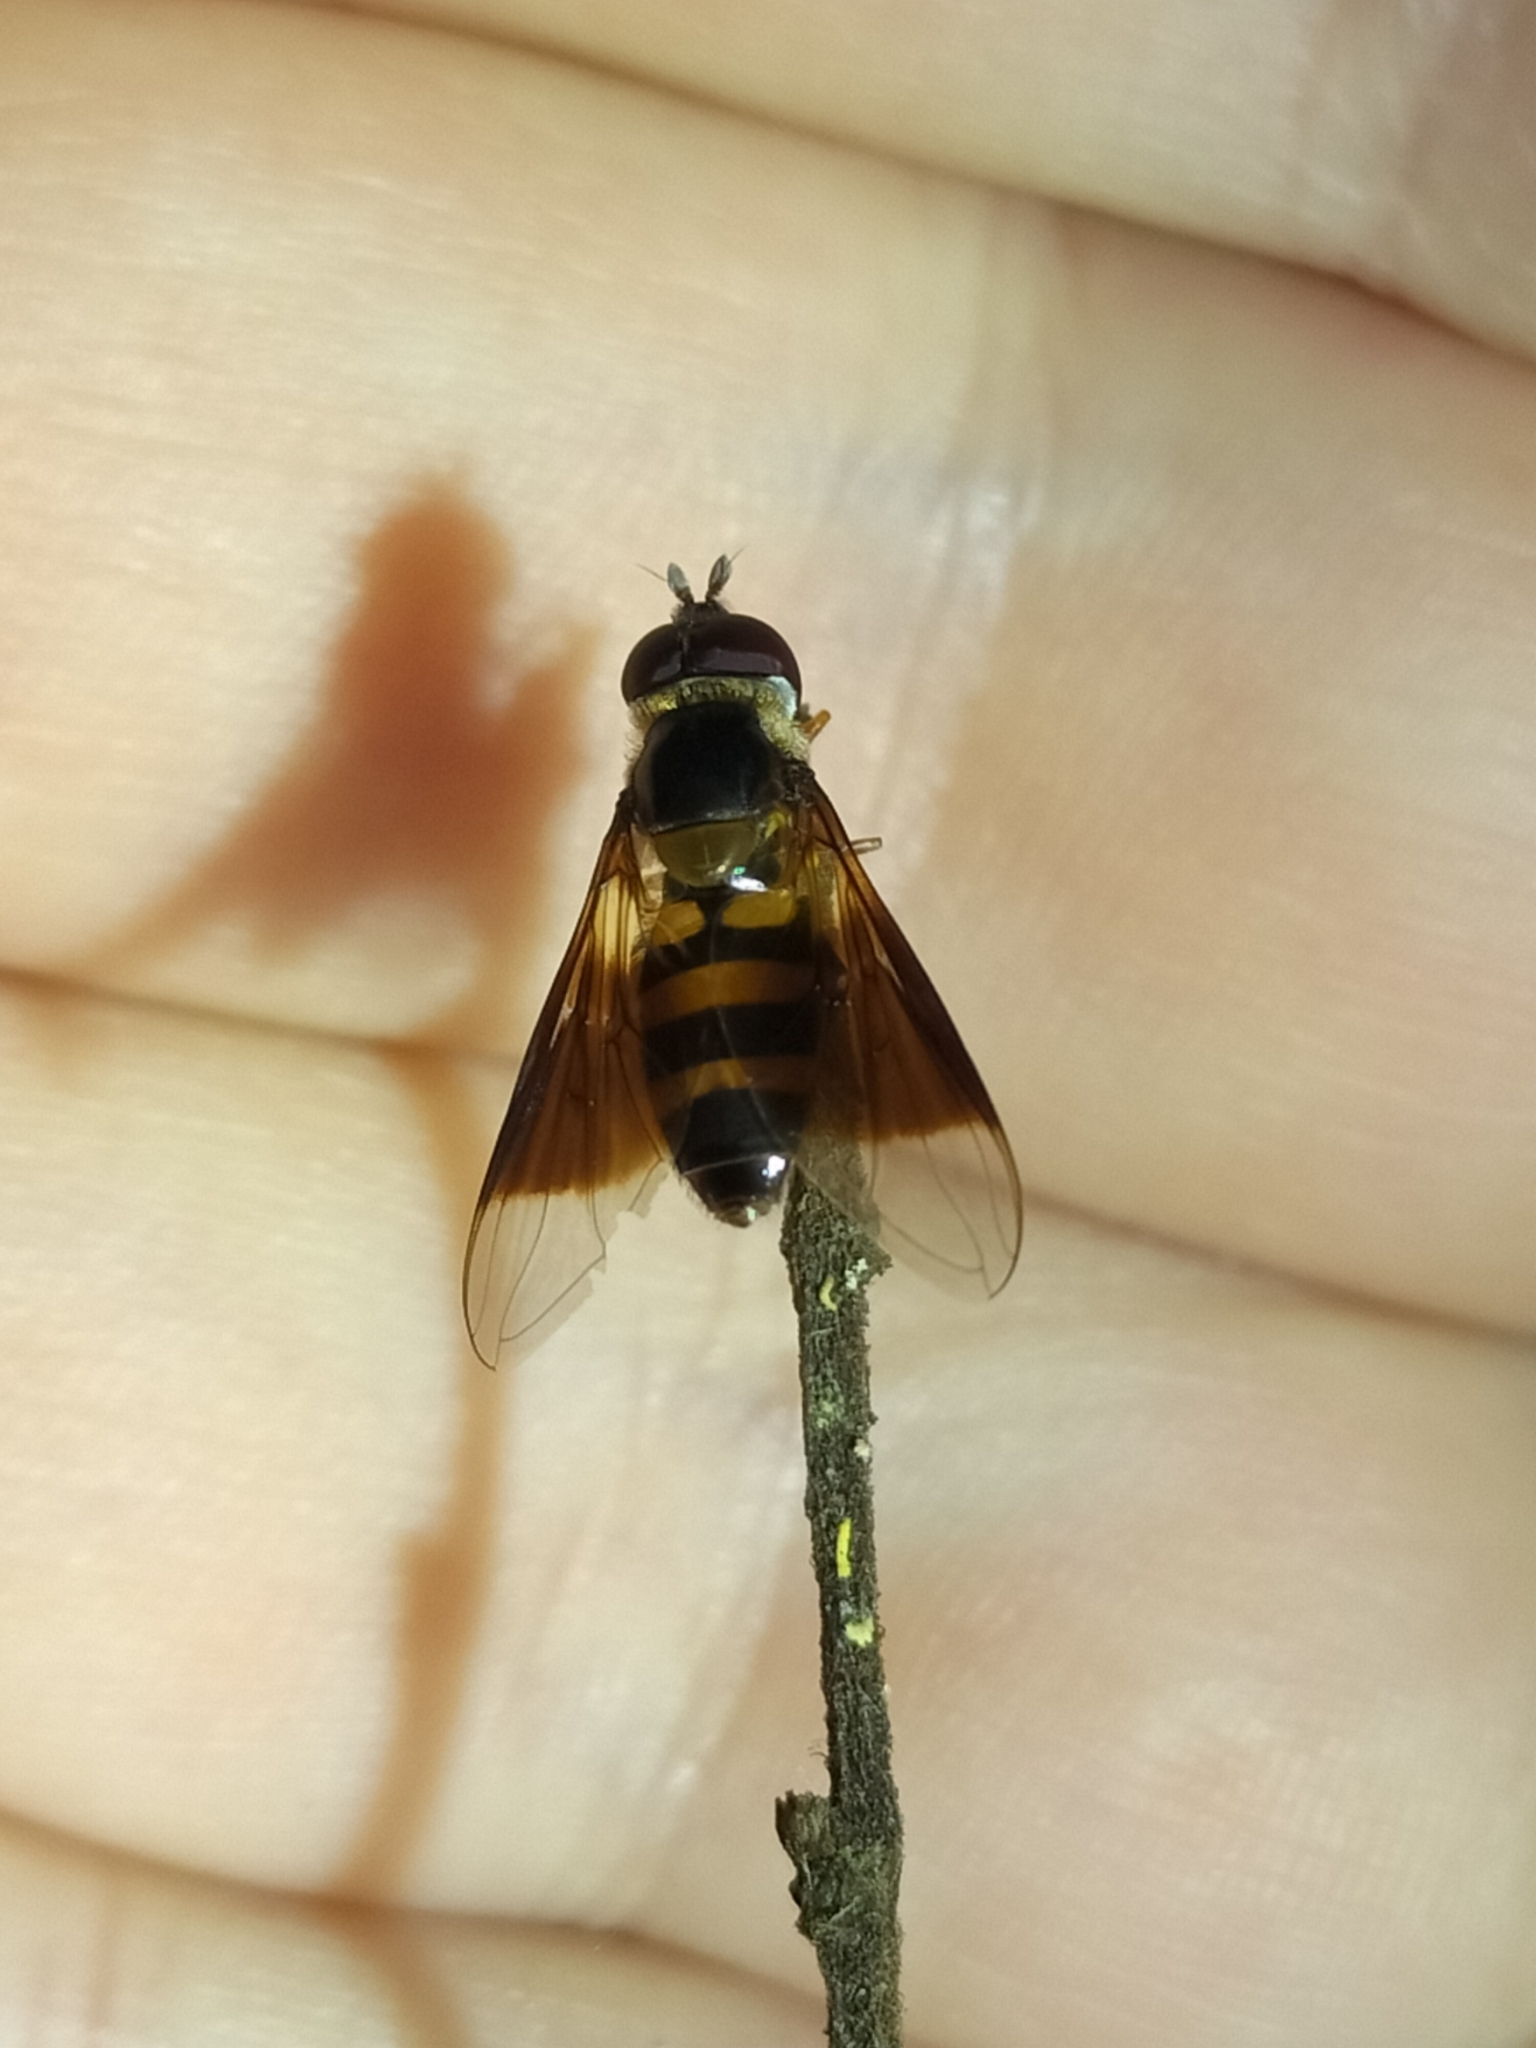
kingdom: Animalia
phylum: Arthropoda
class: Insecta
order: Diptera
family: Syrphidae
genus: Dideopsis
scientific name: Dideopsis aegrota
